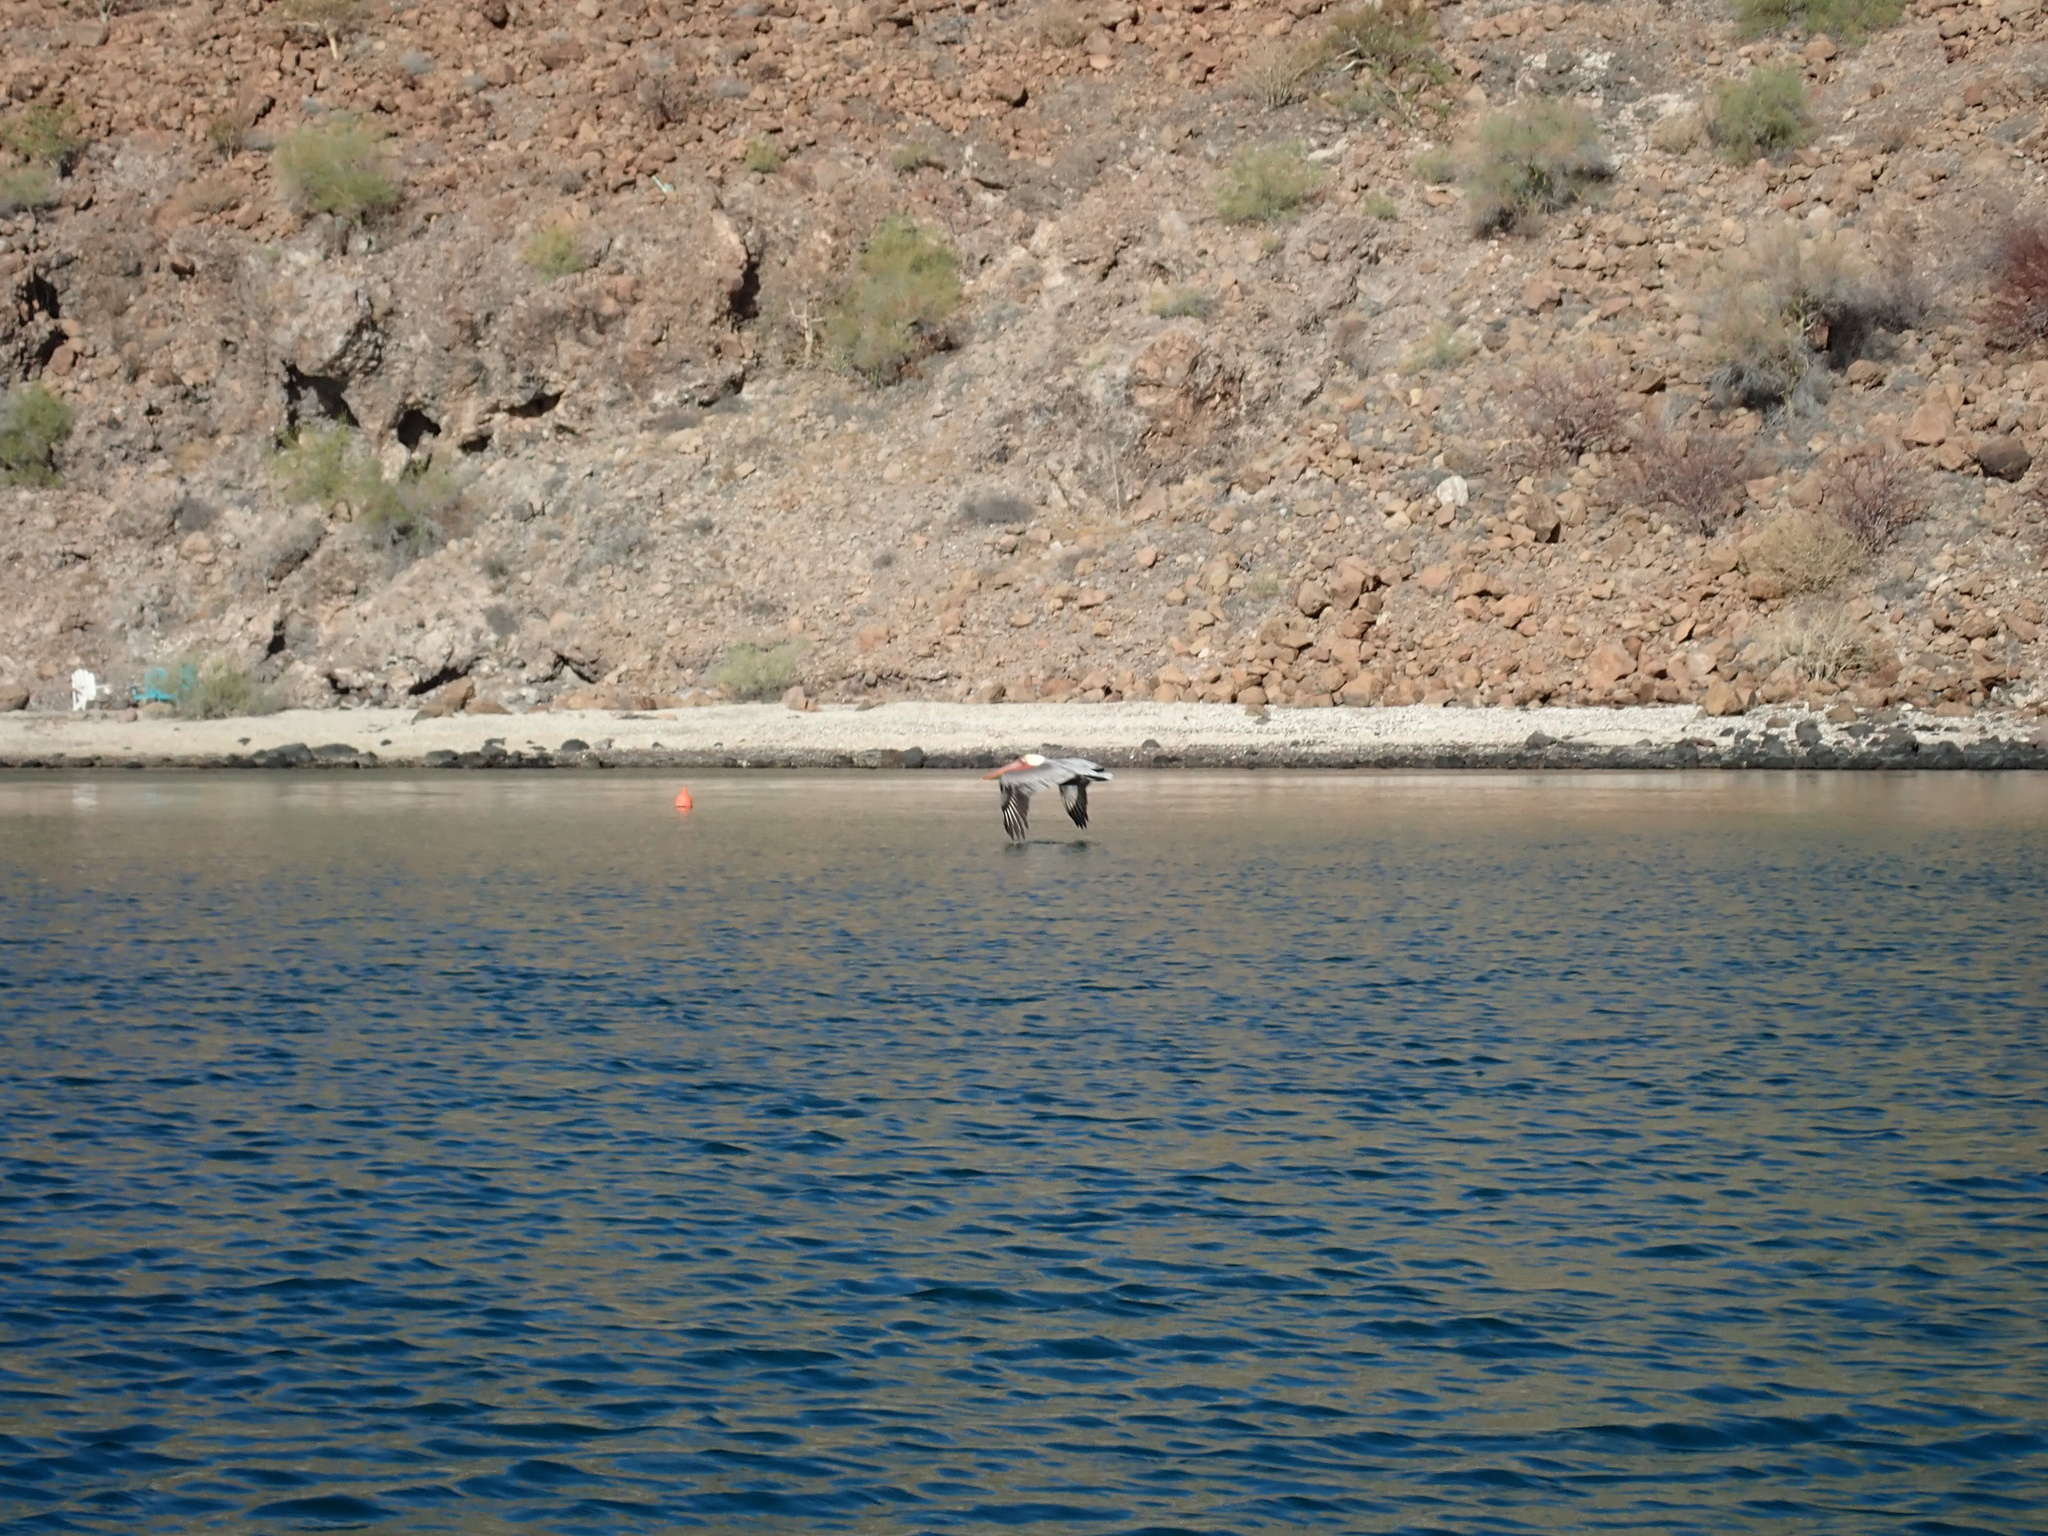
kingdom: Animalia
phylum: Chordata
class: Aves
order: Pelecaniformes
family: Pelecanidae
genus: Pelecanus
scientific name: Pelecanus occidentalis
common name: Brown pelican
